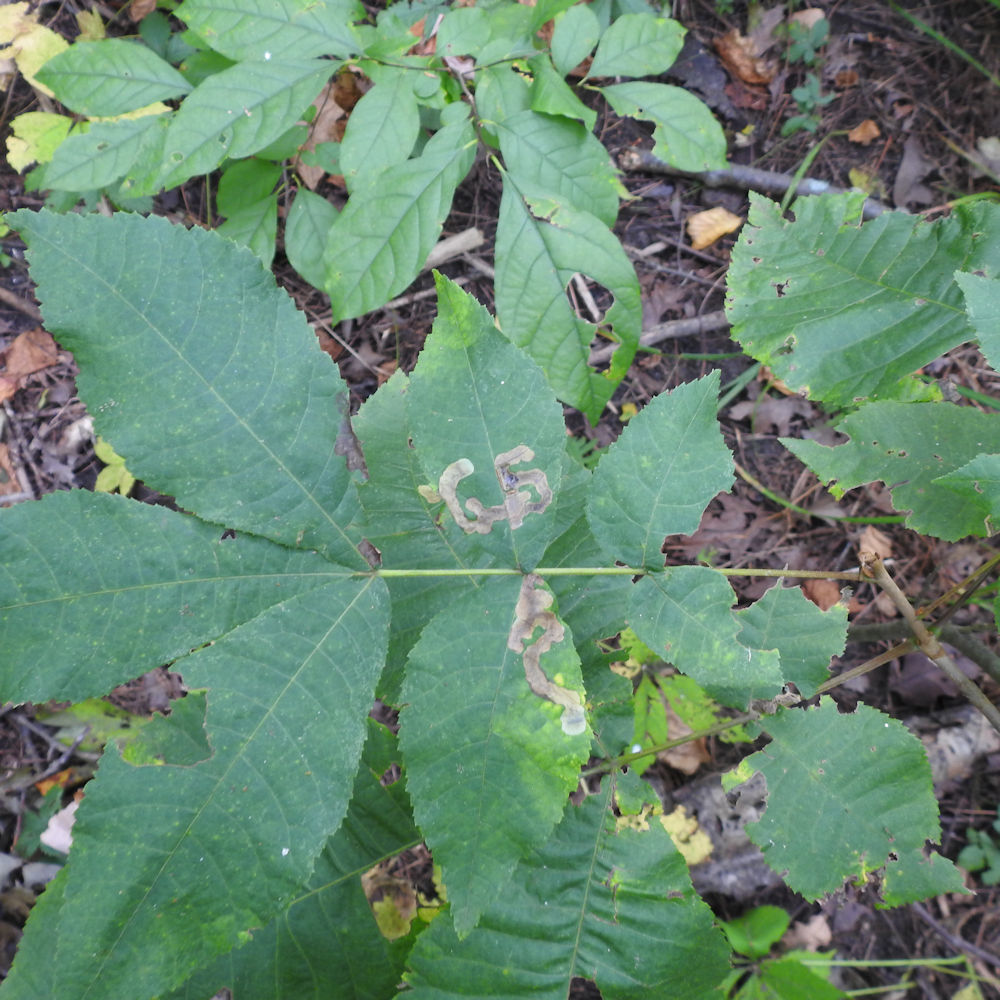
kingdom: Animalia
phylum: Arthropoda
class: Insecta
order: Lepidoptera
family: Gracillariidae
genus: Cameraria
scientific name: Cameraria caryaefoliella
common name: Pecan leafminer moth
